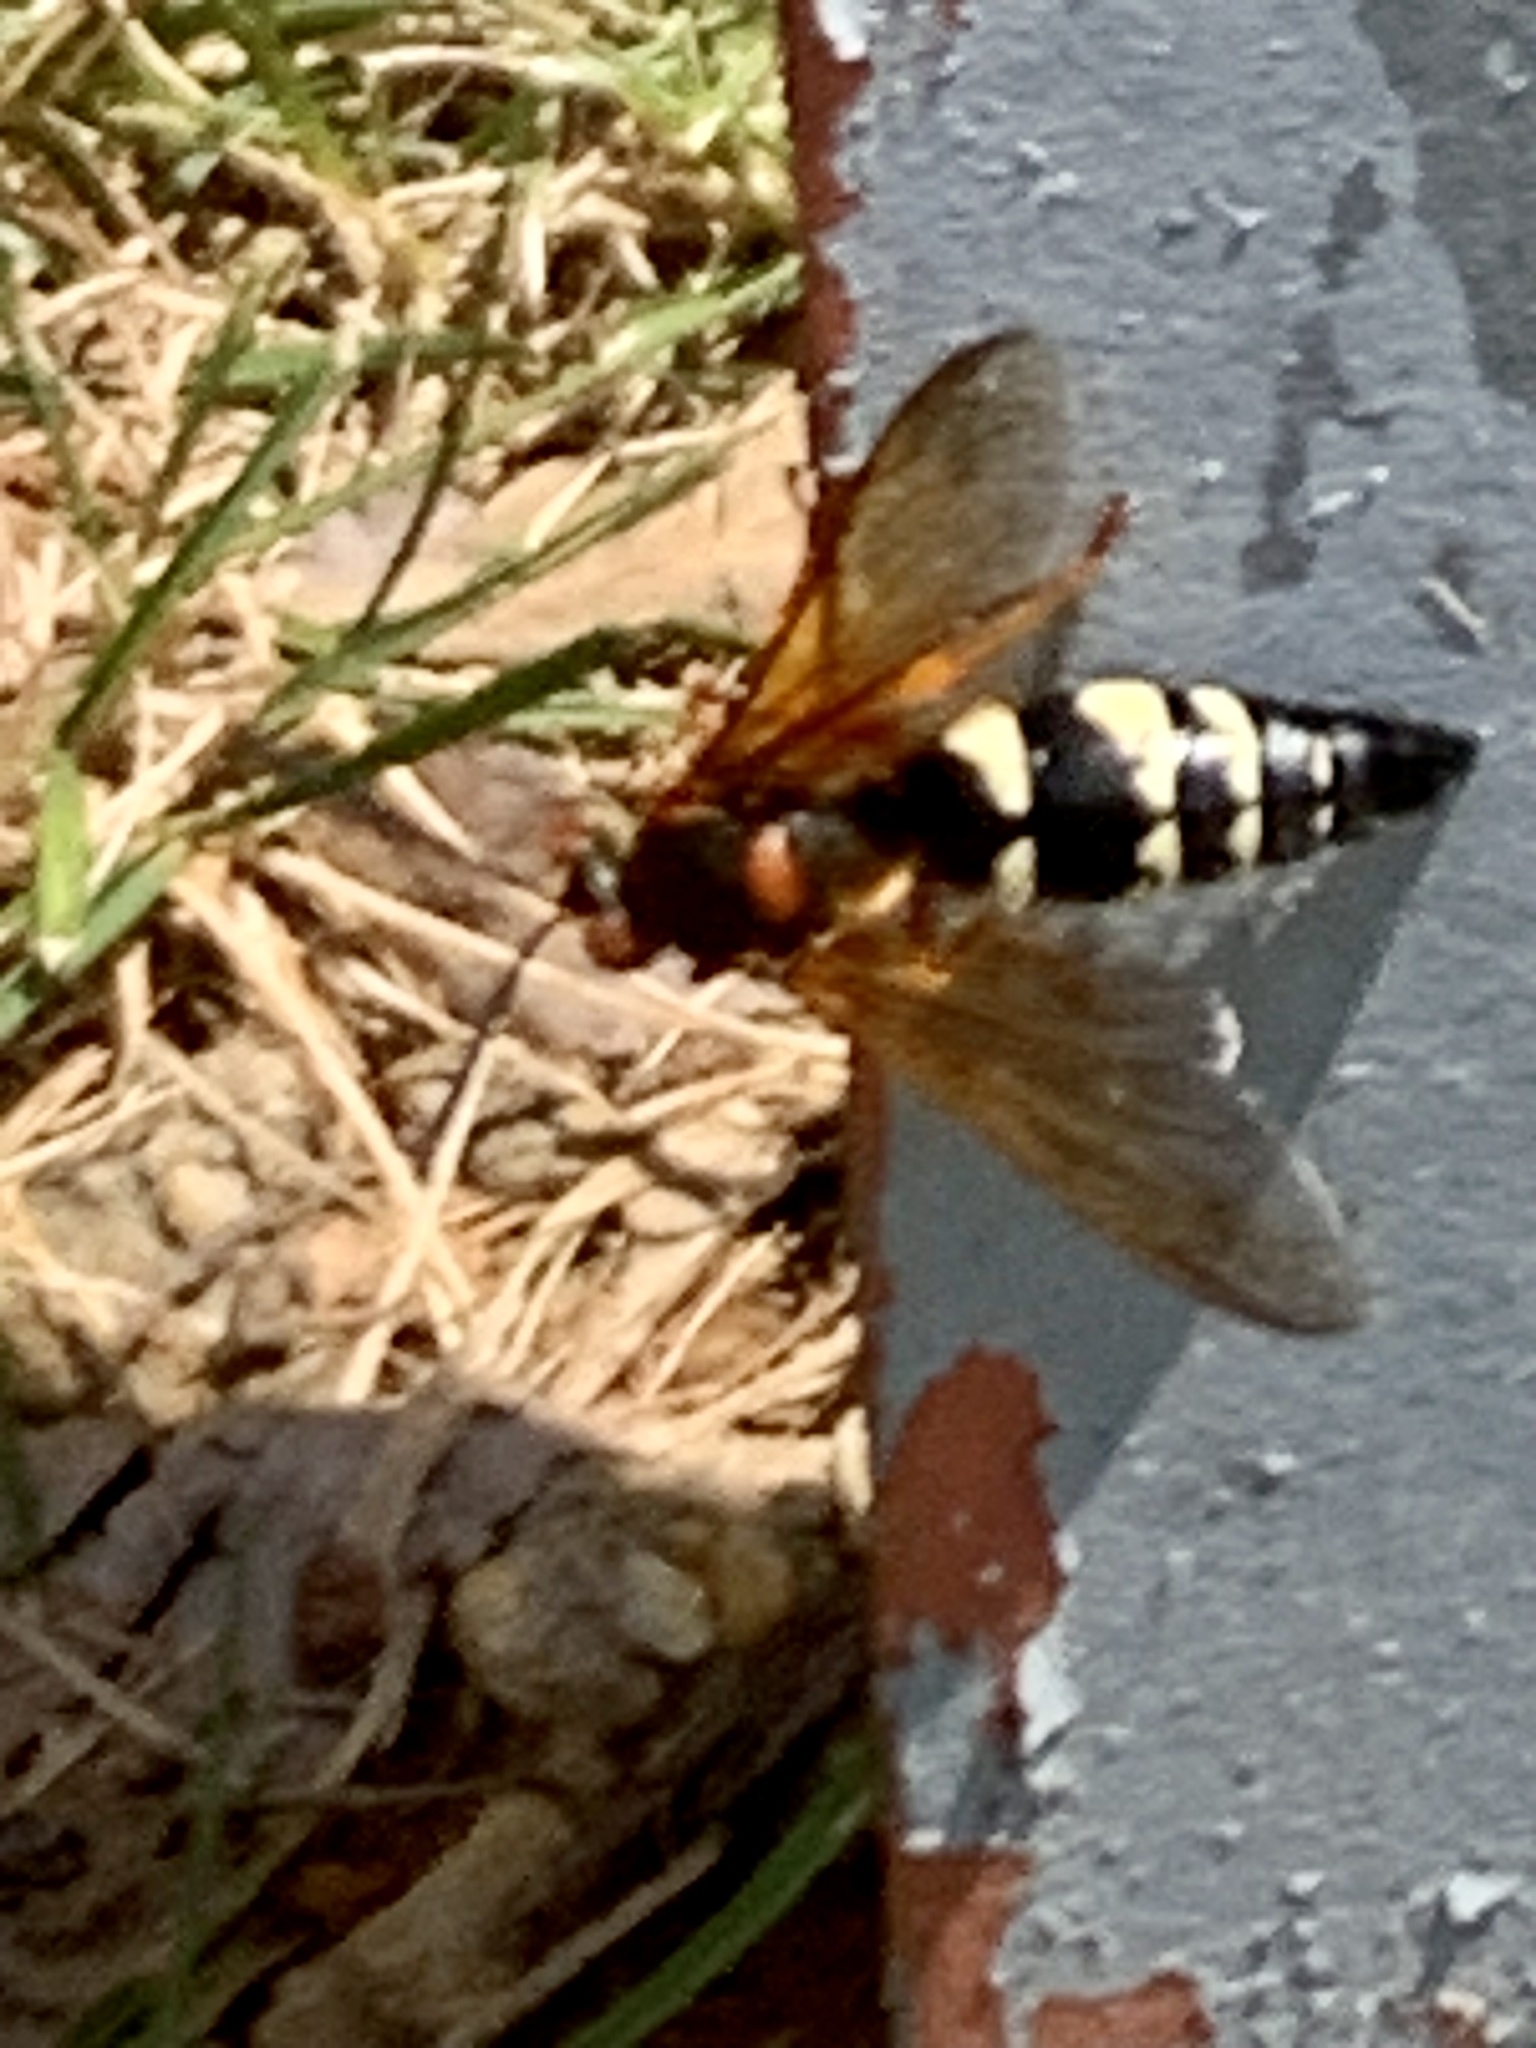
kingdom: Animalia
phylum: Arthropoda
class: Insecta
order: Hymenoptera
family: Crabronidae
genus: Sphecius
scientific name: Sphecius speciosus
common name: Cicada killer
